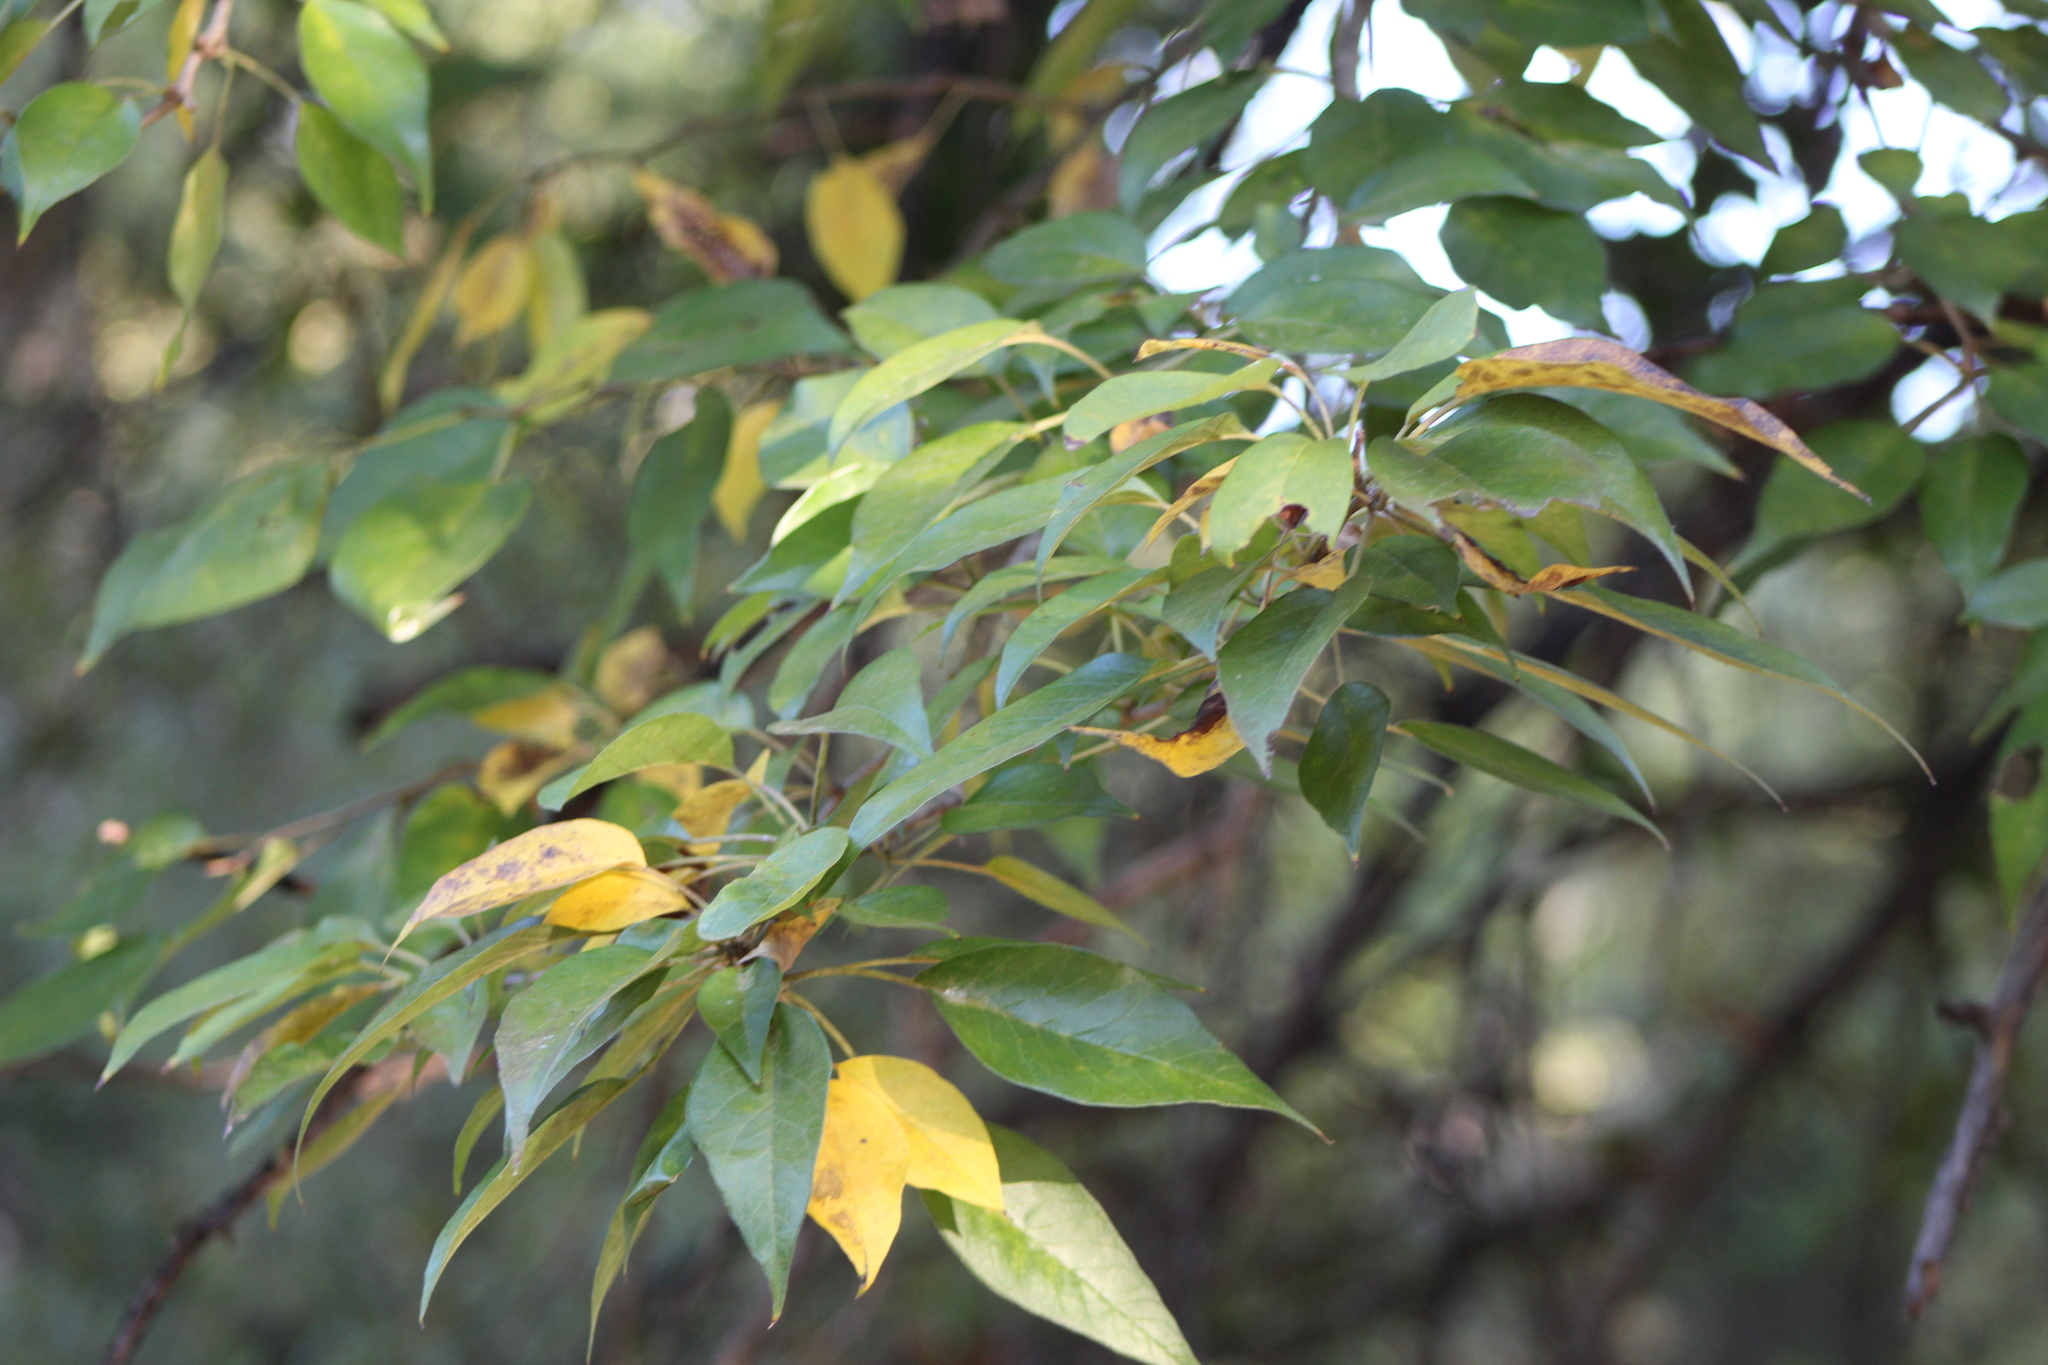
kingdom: Plantae
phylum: Tracheophyta
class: Magnoliopsida
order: Rosales
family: Moraceae
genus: Maclura
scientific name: Maclura pomifera
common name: Osage-orange
